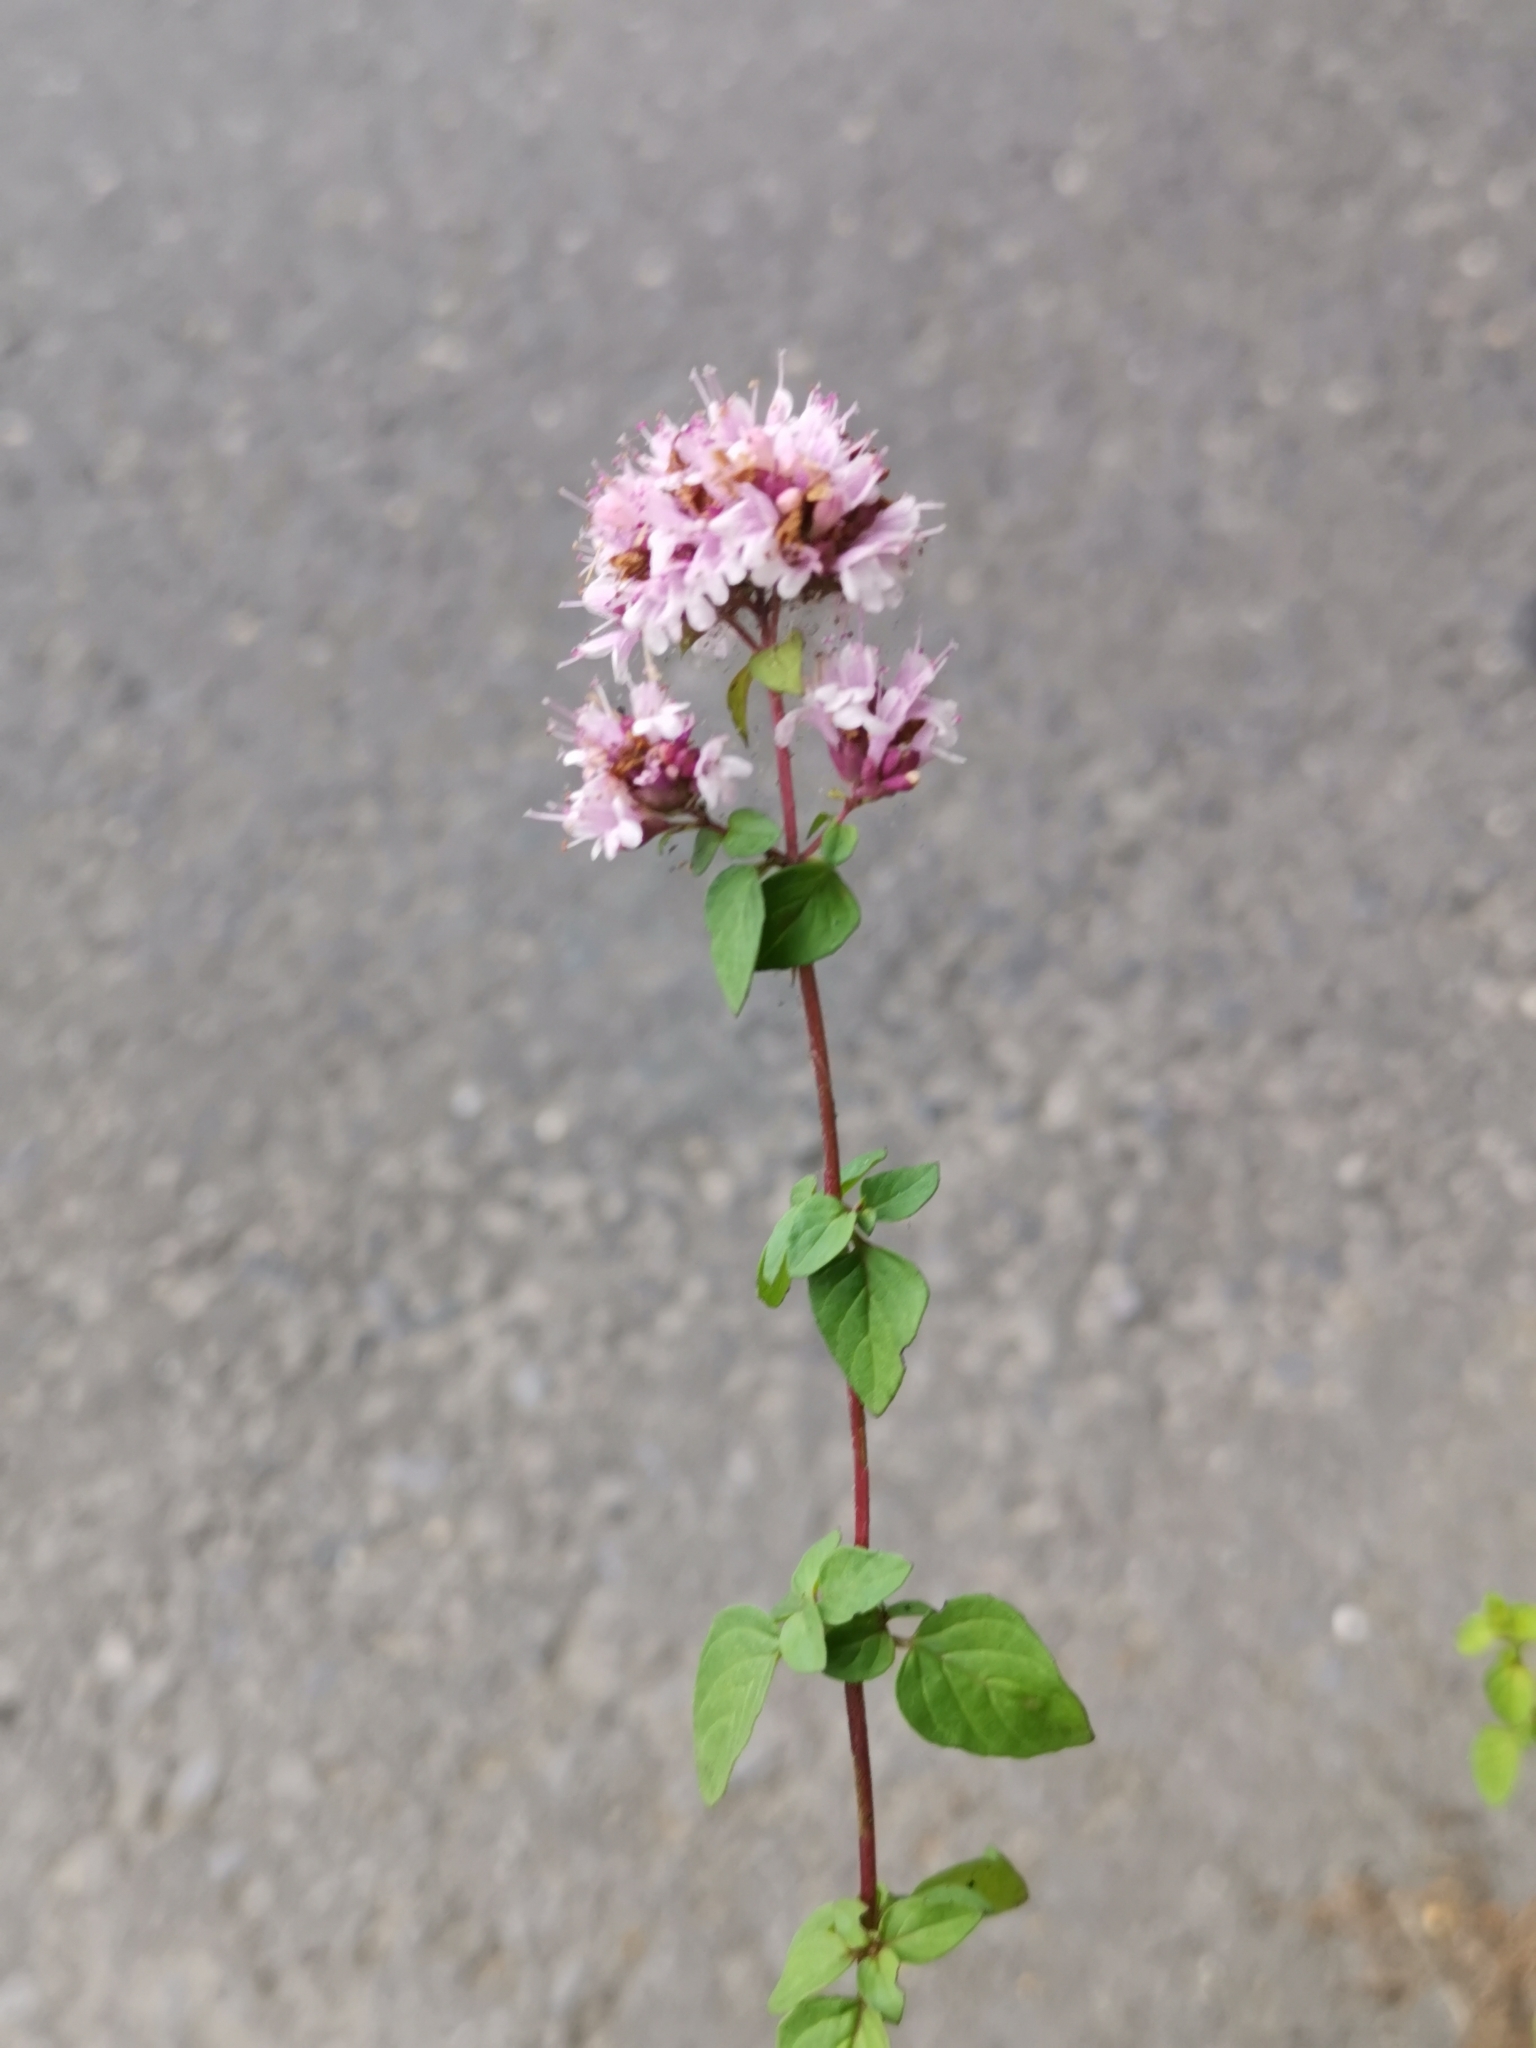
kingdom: Plantae
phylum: Tracheophyta
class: Magnoliopsida
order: Lamiales
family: Lamiaceae
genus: Origanum
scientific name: Origanum vulgare
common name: Wild marjoram
